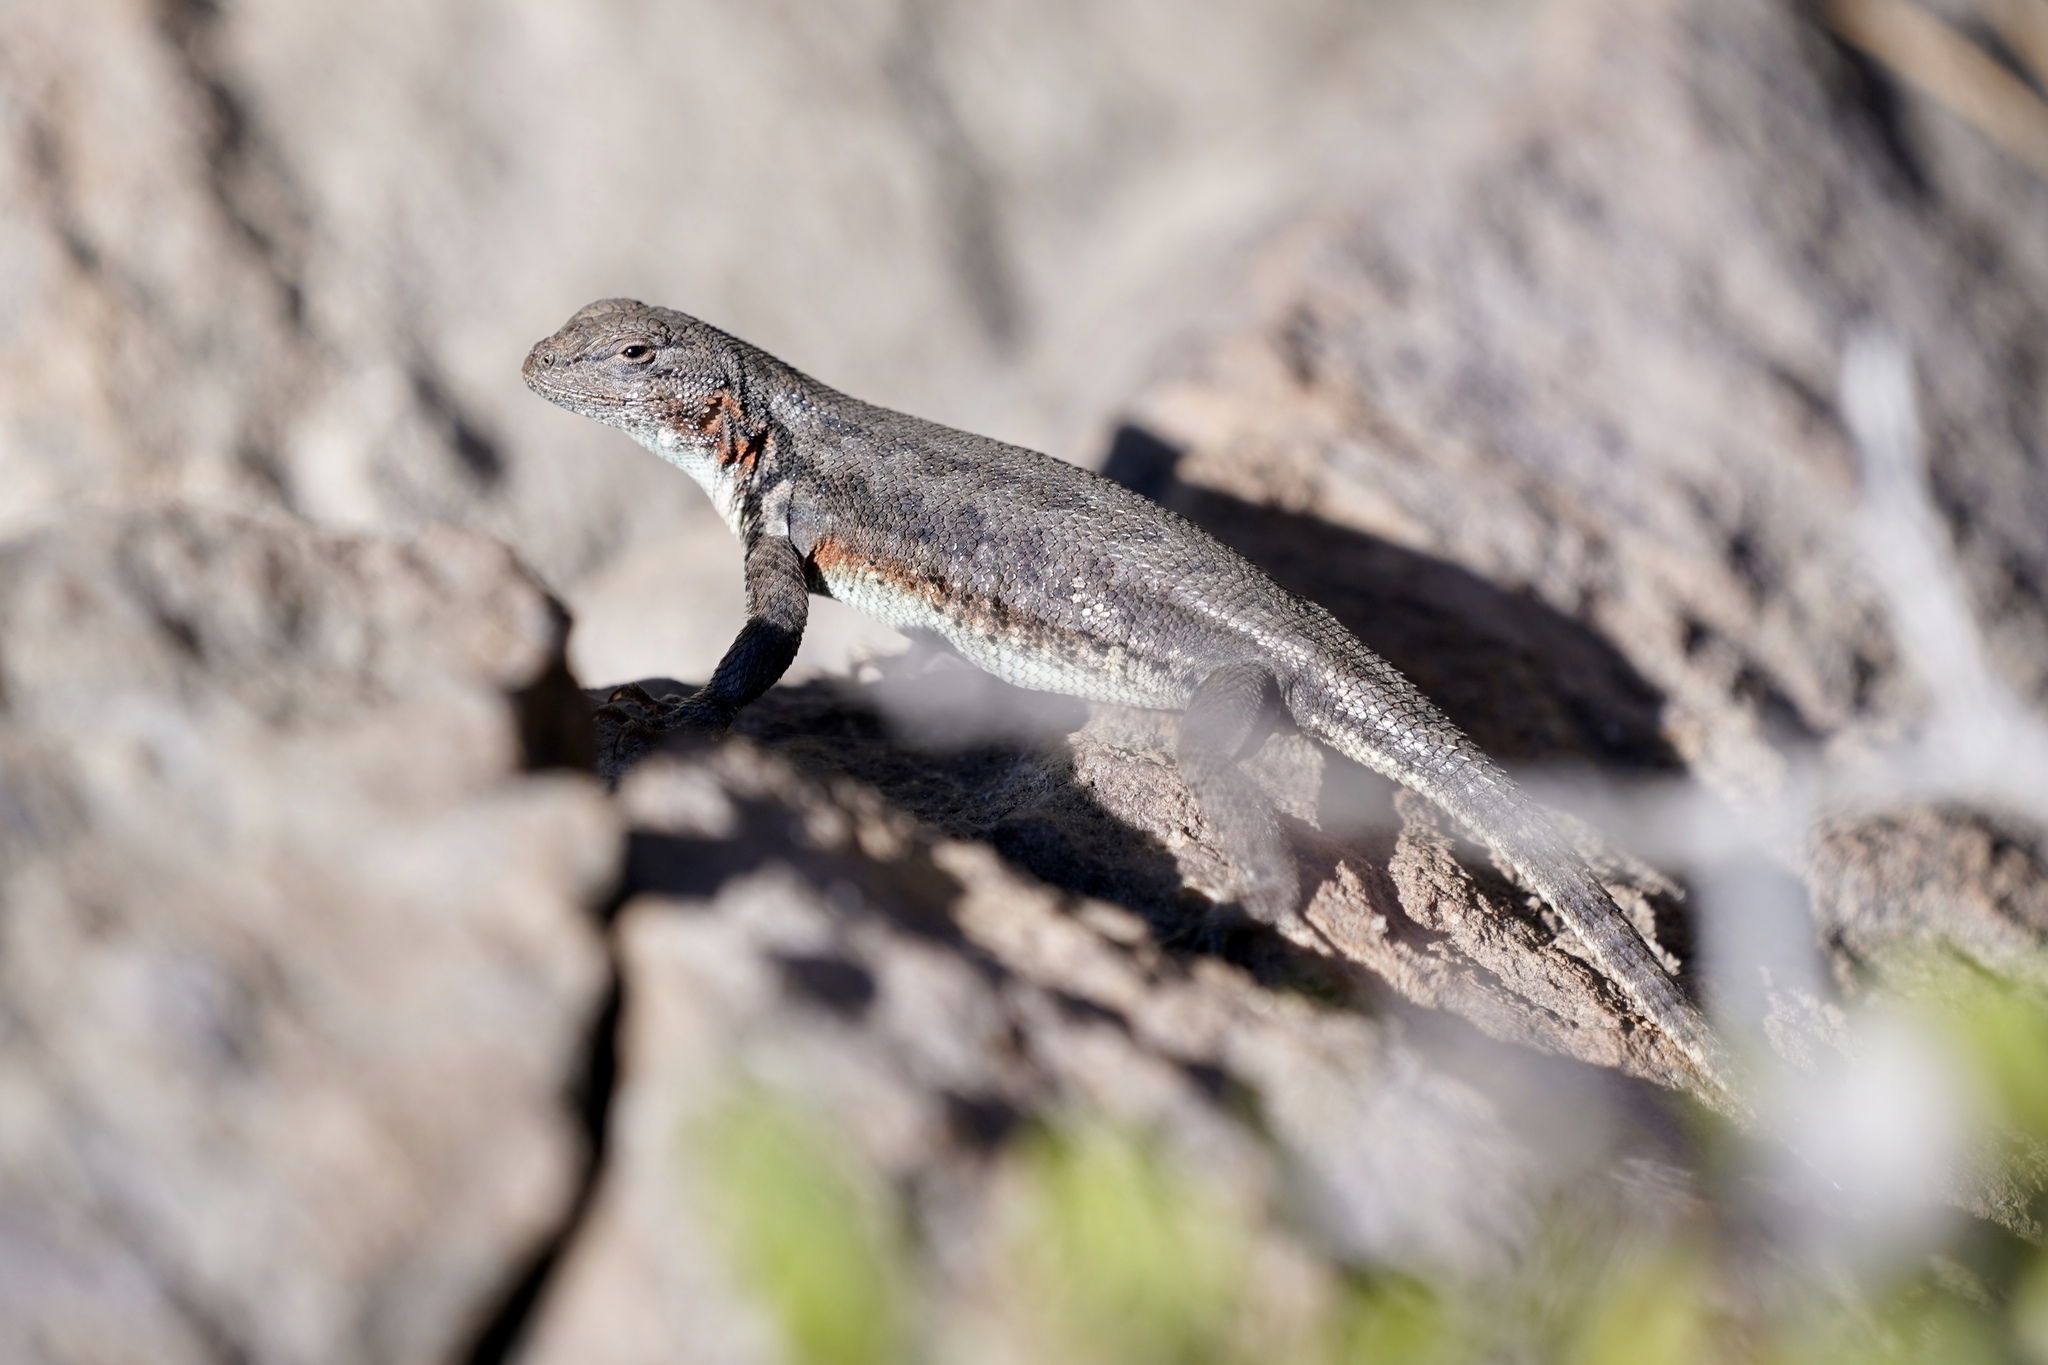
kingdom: Animalia
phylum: Chordata
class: Squamata
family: Phrynosomatidae
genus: Sceloporus
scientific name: Sceloporus graciosus
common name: Sagebrush lizard
